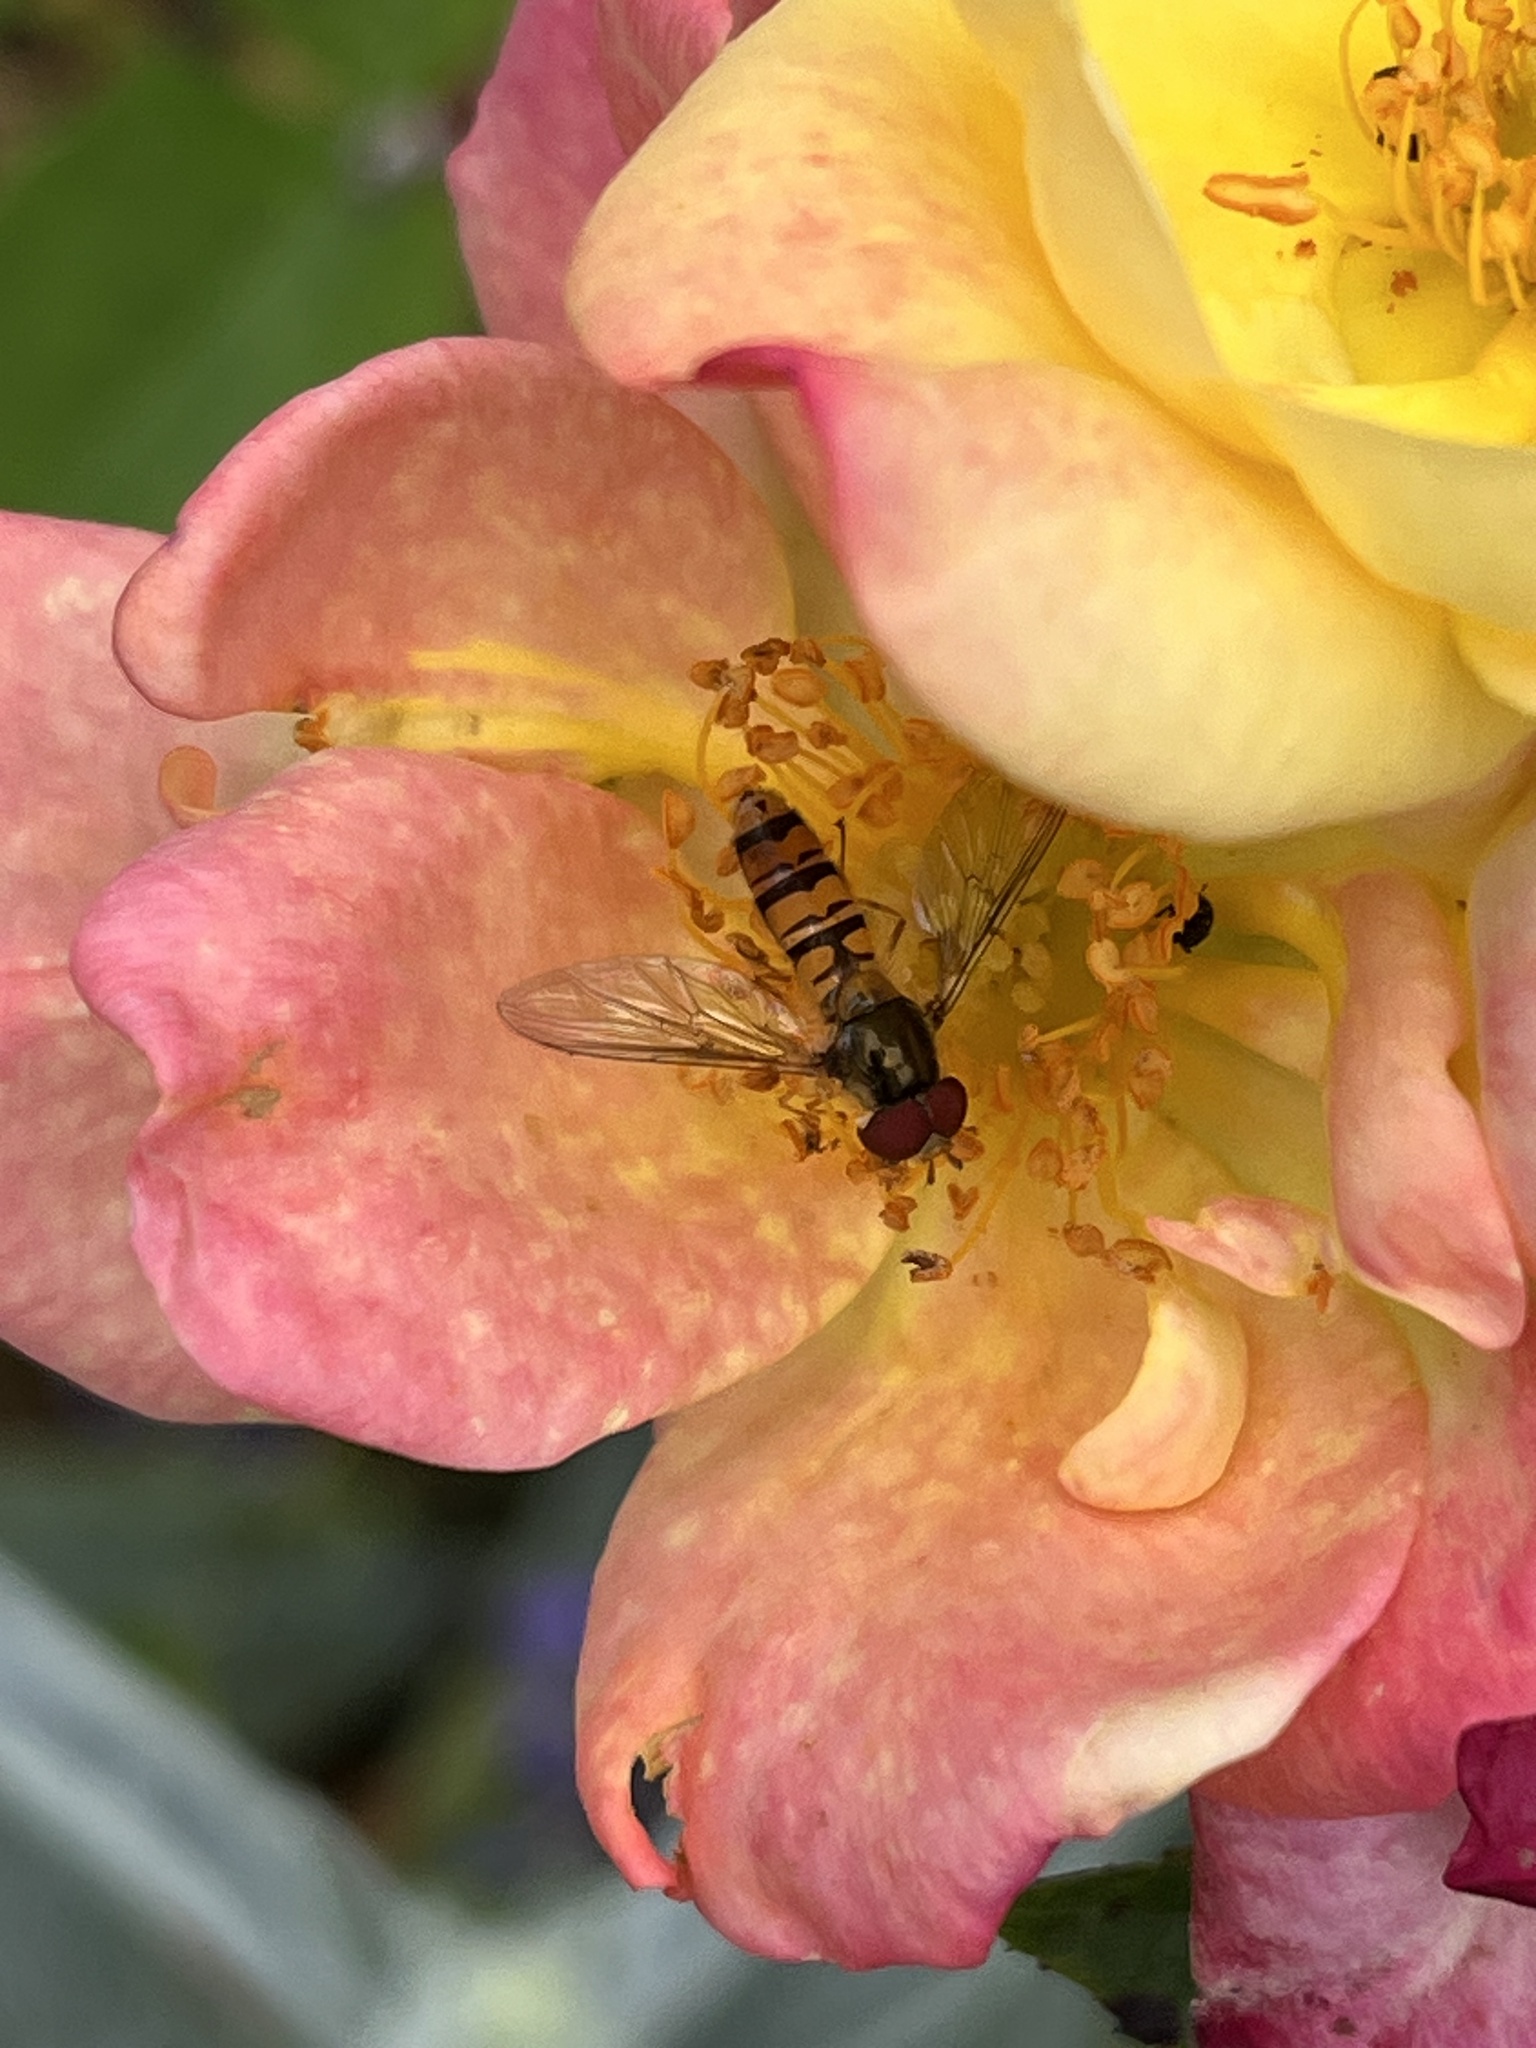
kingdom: Animalia
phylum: Arthropoda
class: Insecta
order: Diptera
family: Syrphidae
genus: Episyrphus
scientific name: Episyrphus balteatus
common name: Marmalade hoverfly
